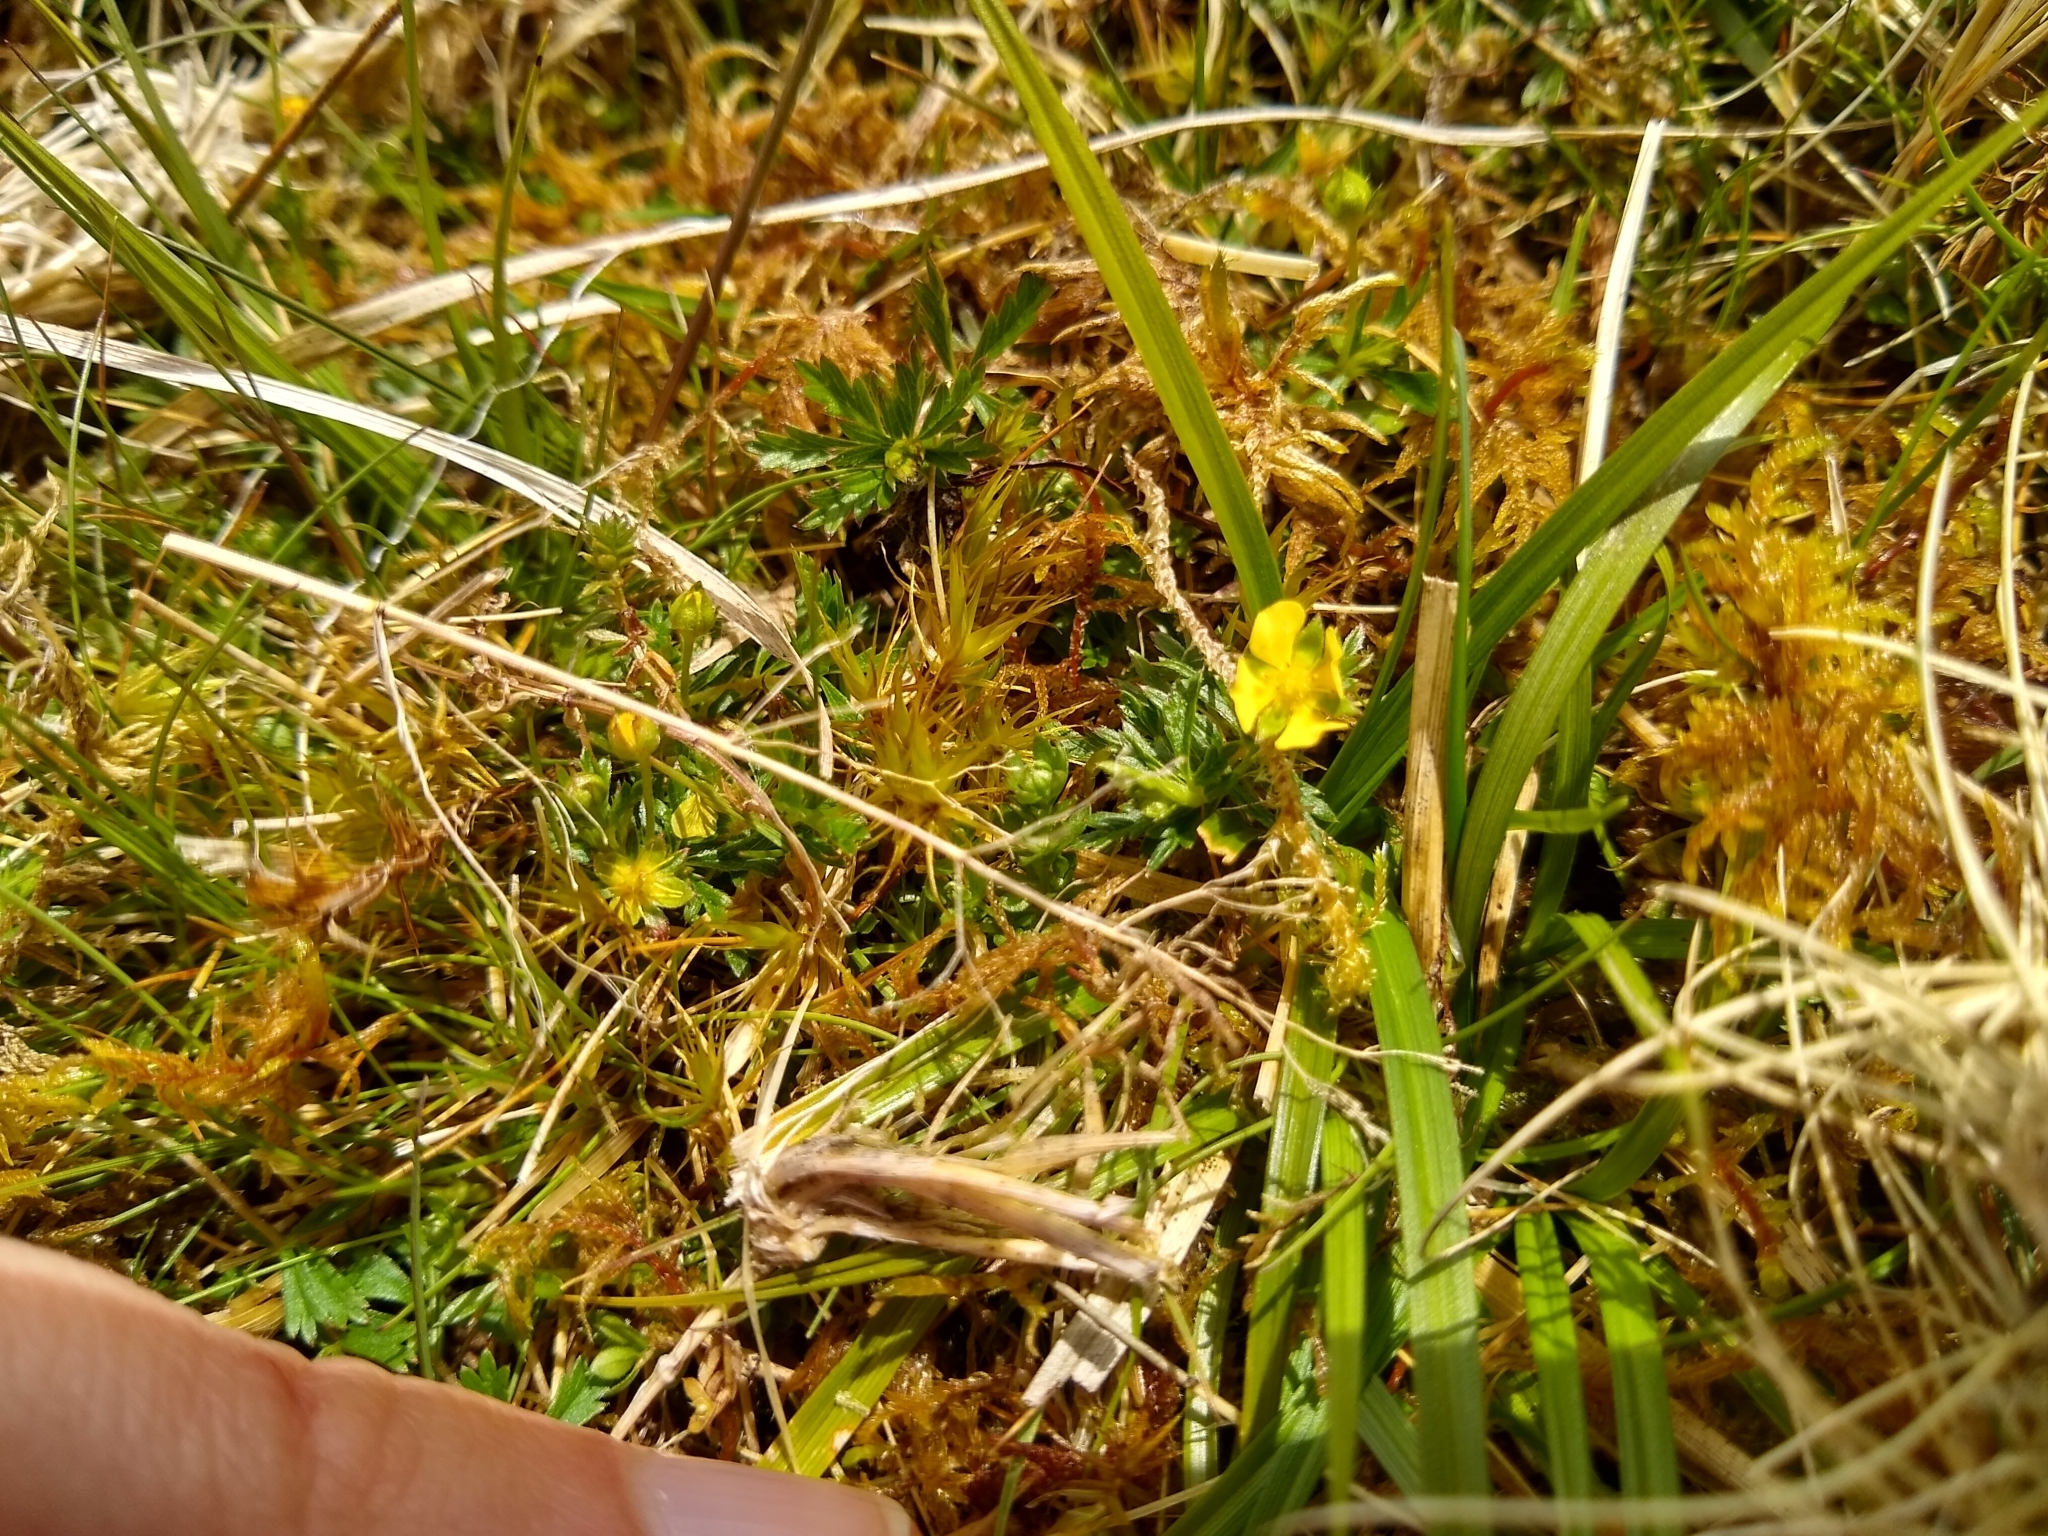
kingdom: Plantae
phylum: Tracheophyta
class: Magnoliopsida
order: Rosales
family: Rosaceae
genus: Potentilla
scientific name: Potentilla erecta
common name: Tormentil
